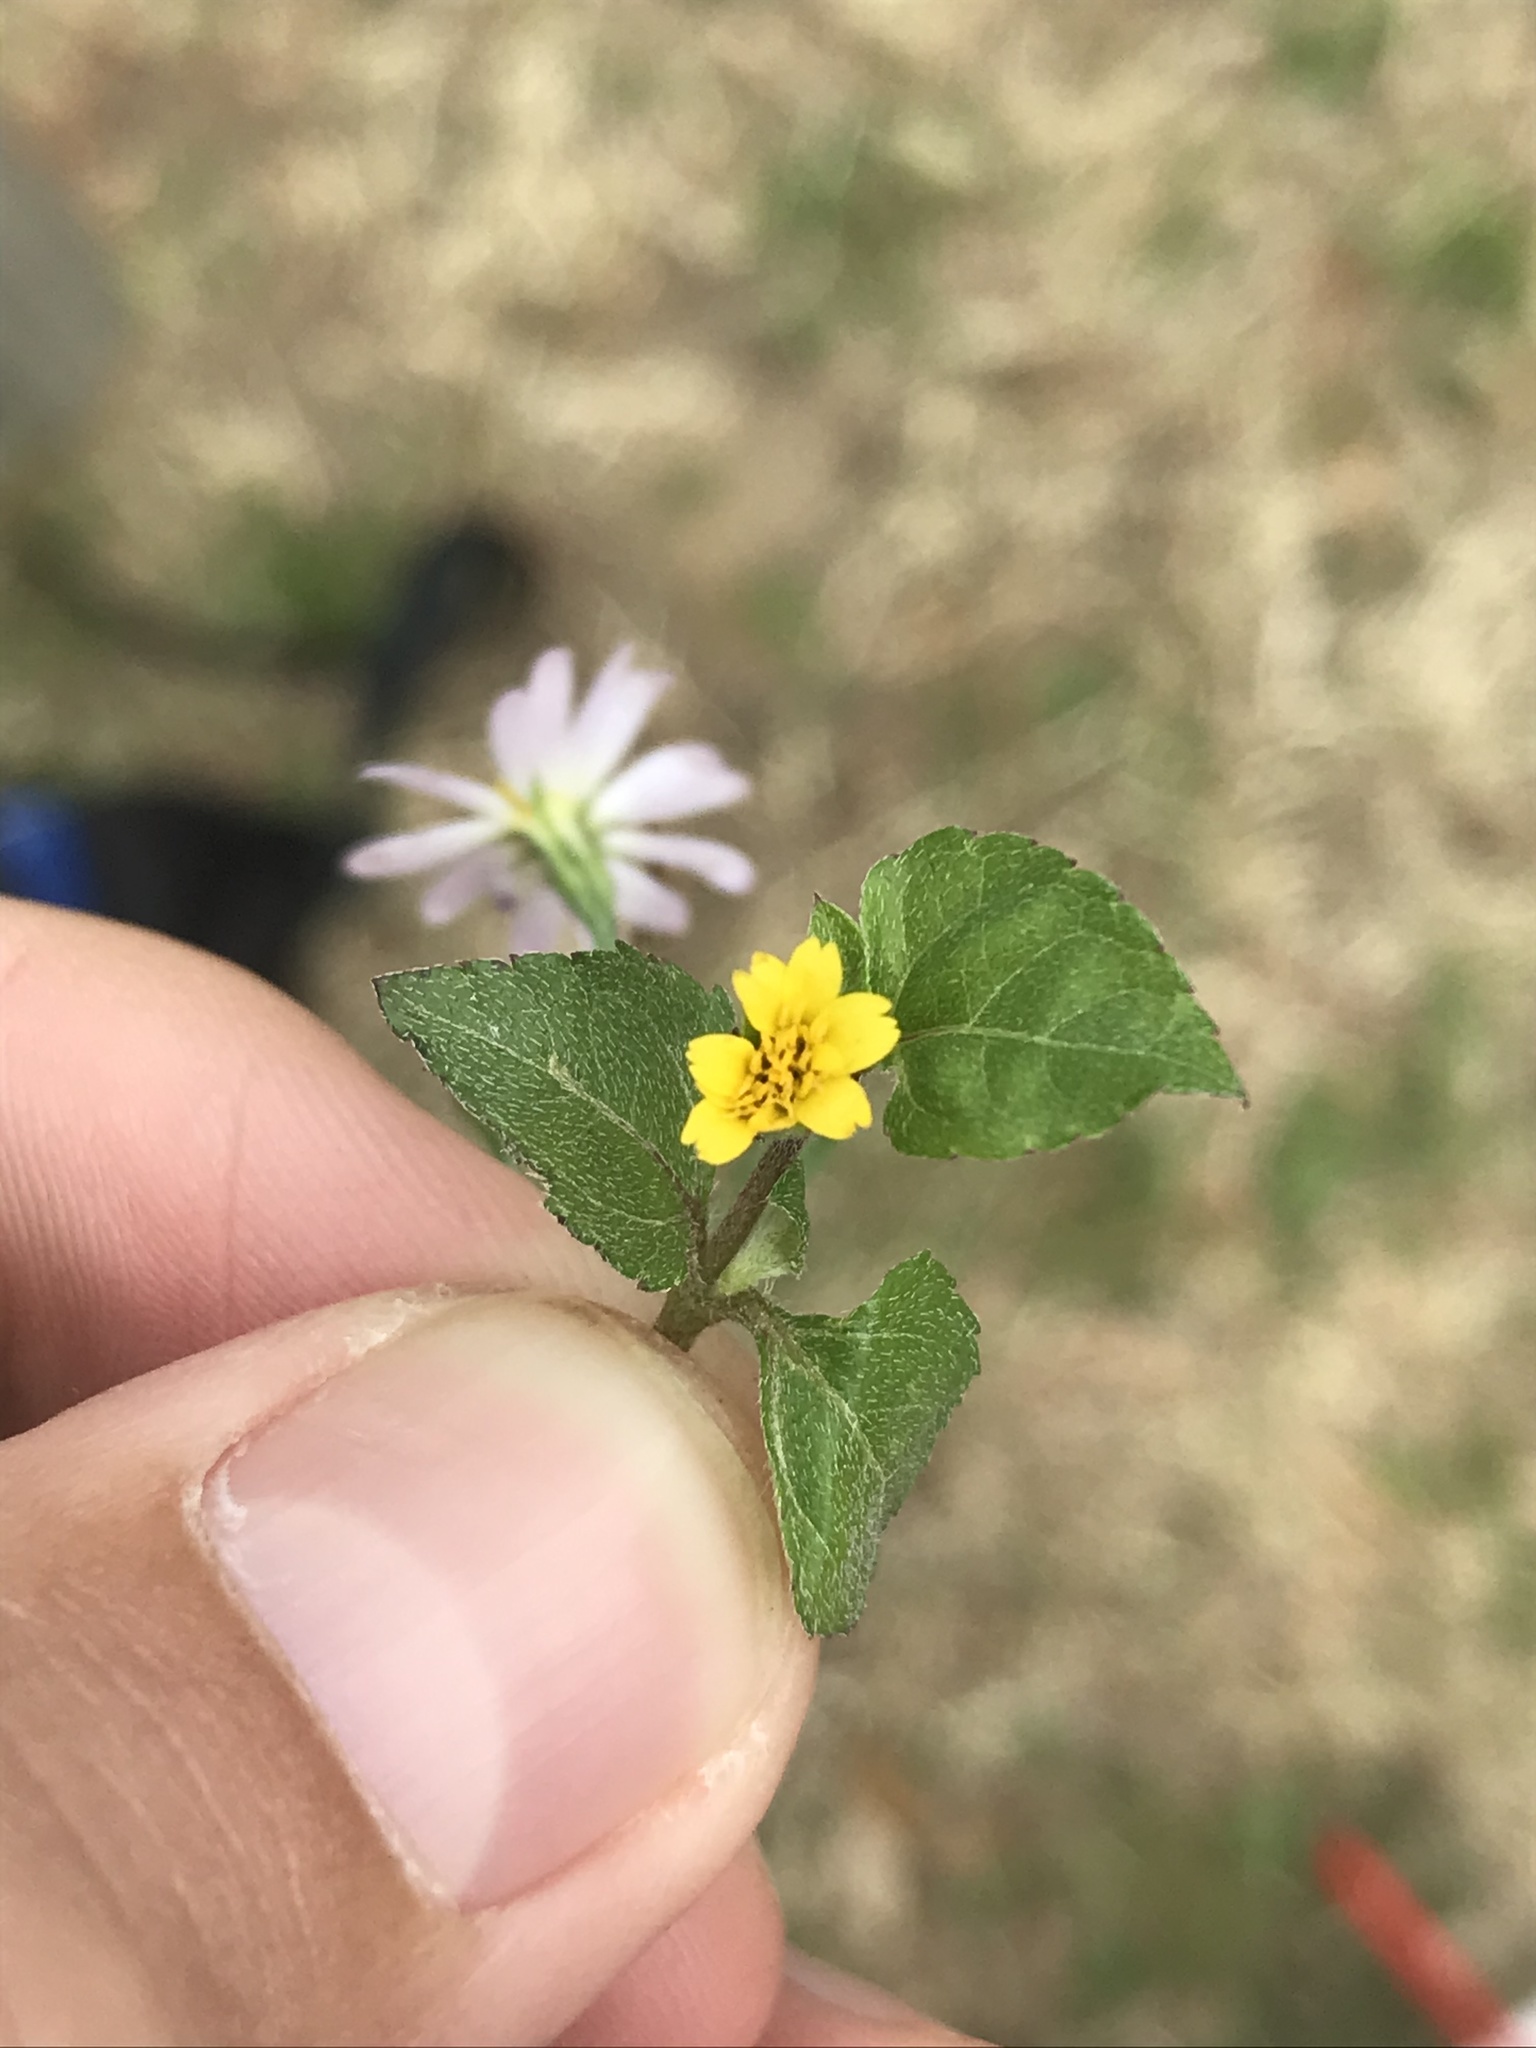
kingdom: Plantae
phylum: Tracheophyta
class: Magnoliopsida
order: Asterales
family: Asteraceae
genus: Calyptocarpus
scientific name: Calyptocarpus vialis
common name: Straggler daisy
